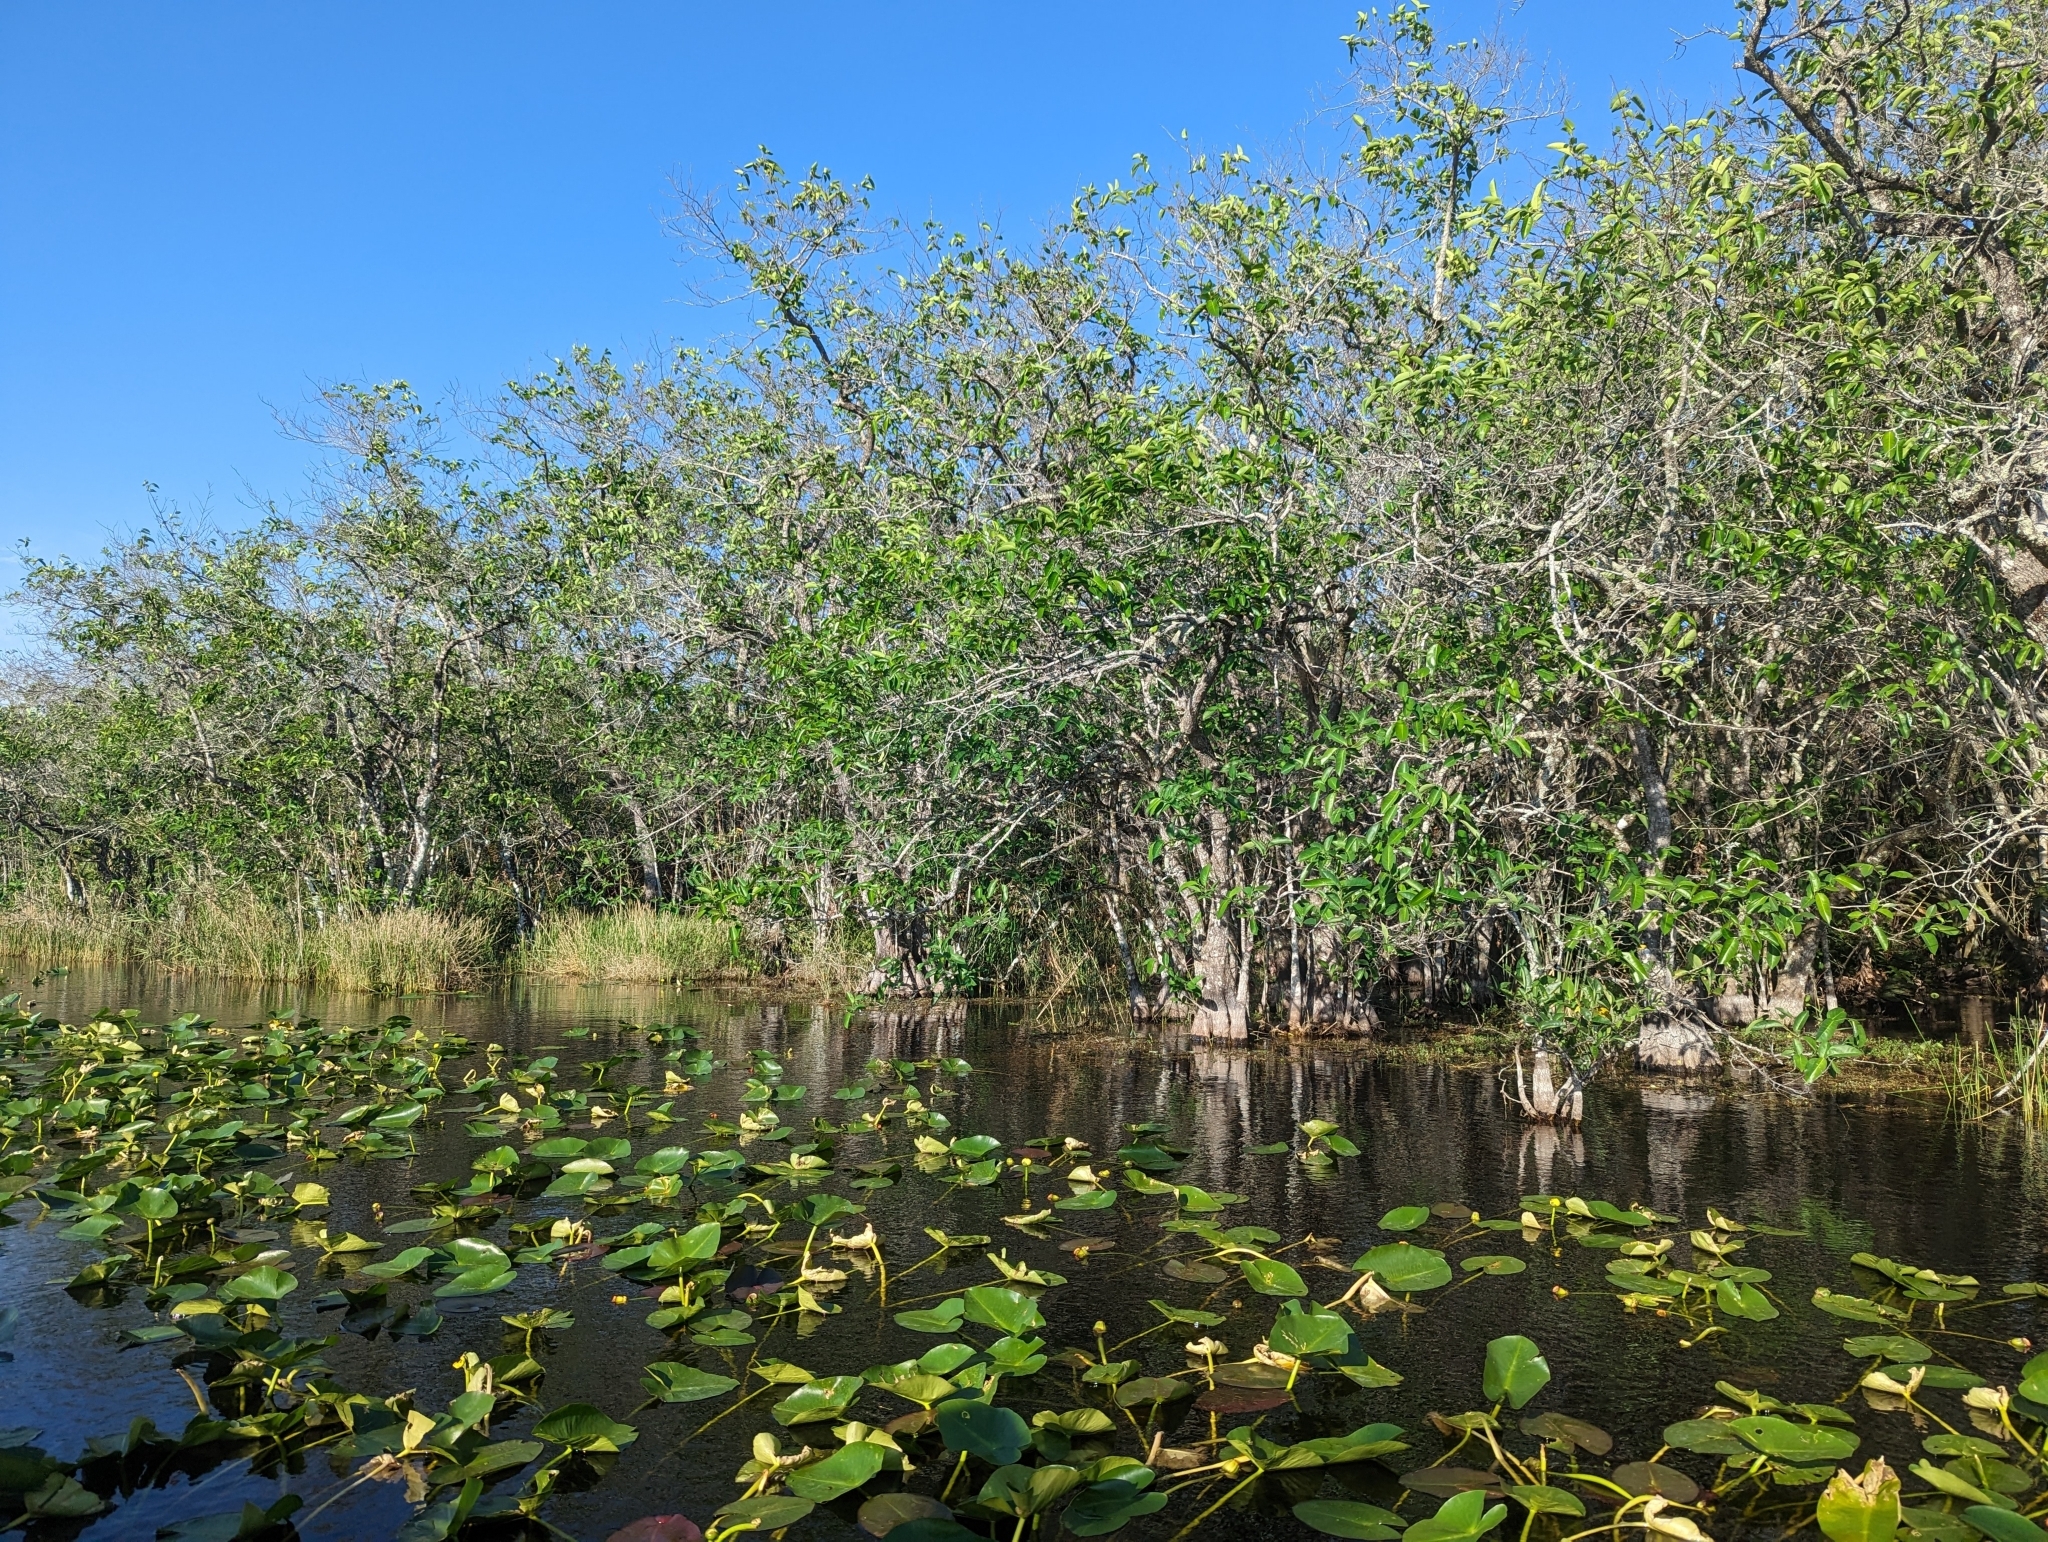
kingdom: Plantae
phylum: Tracheophyta
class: Magnoliopsida
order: Magnoliales
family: Annonaceae
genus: Annona
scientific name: Annona glabra
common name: Monkey apple
